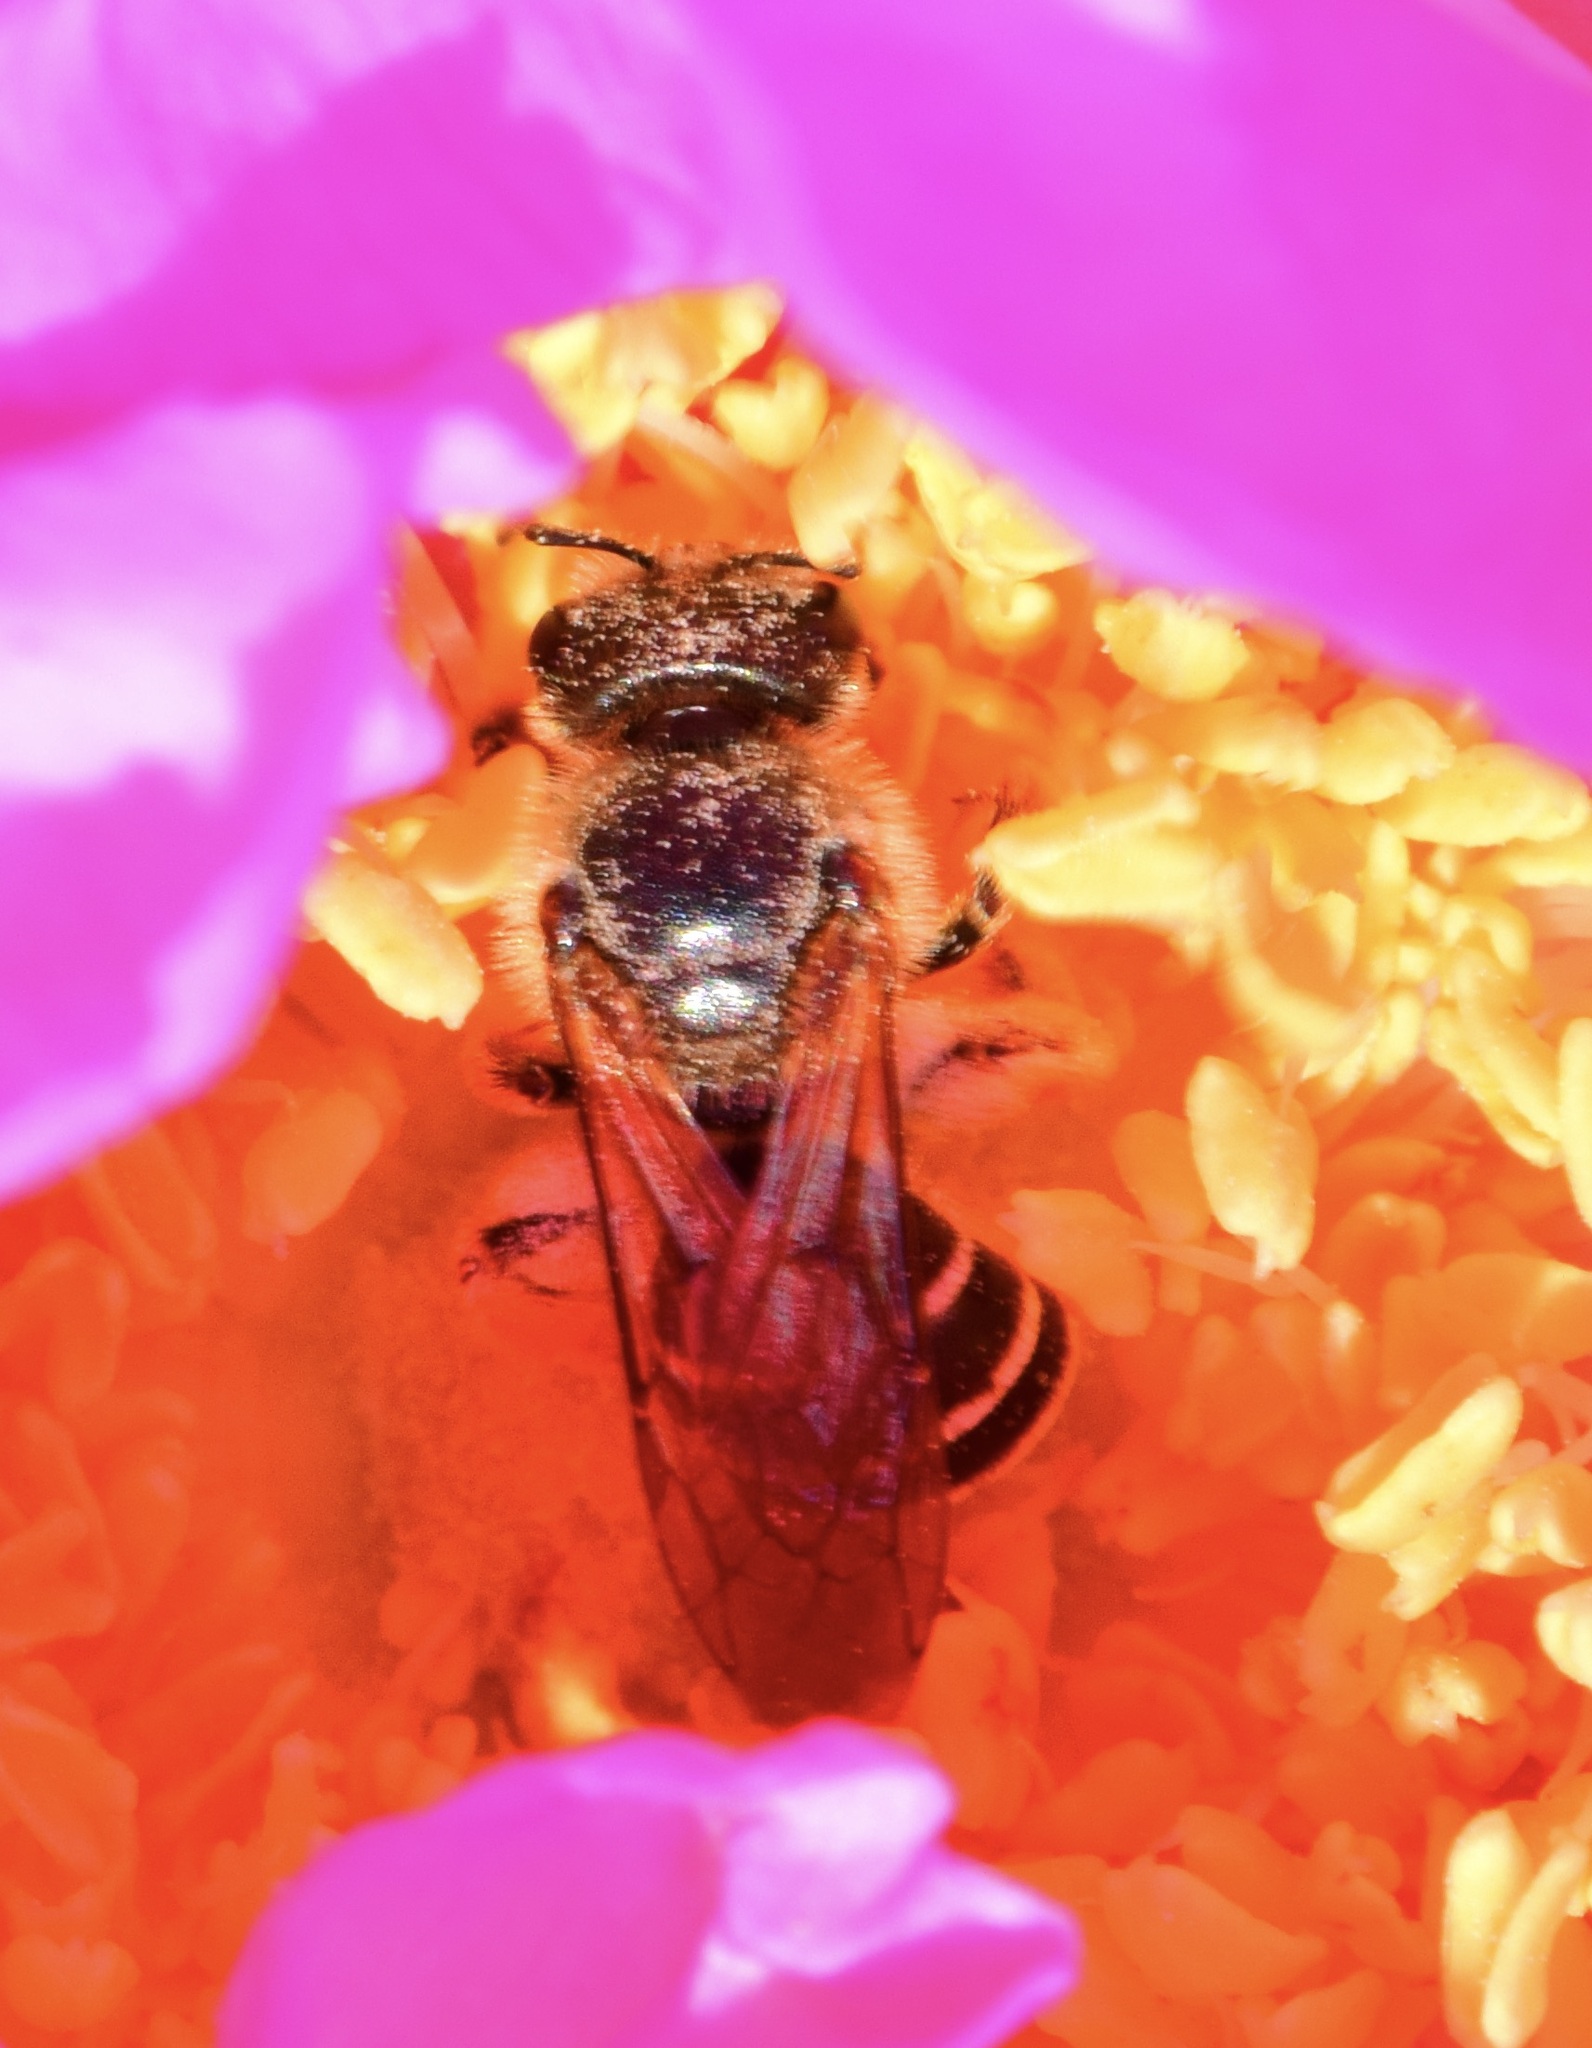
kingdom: Animalia
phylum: Arthropoda
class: Insecta
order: Hymenoptera
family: Halictidae
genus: Halictus
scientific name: Halictus rubicundus
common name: Orange-legged furrow bee
